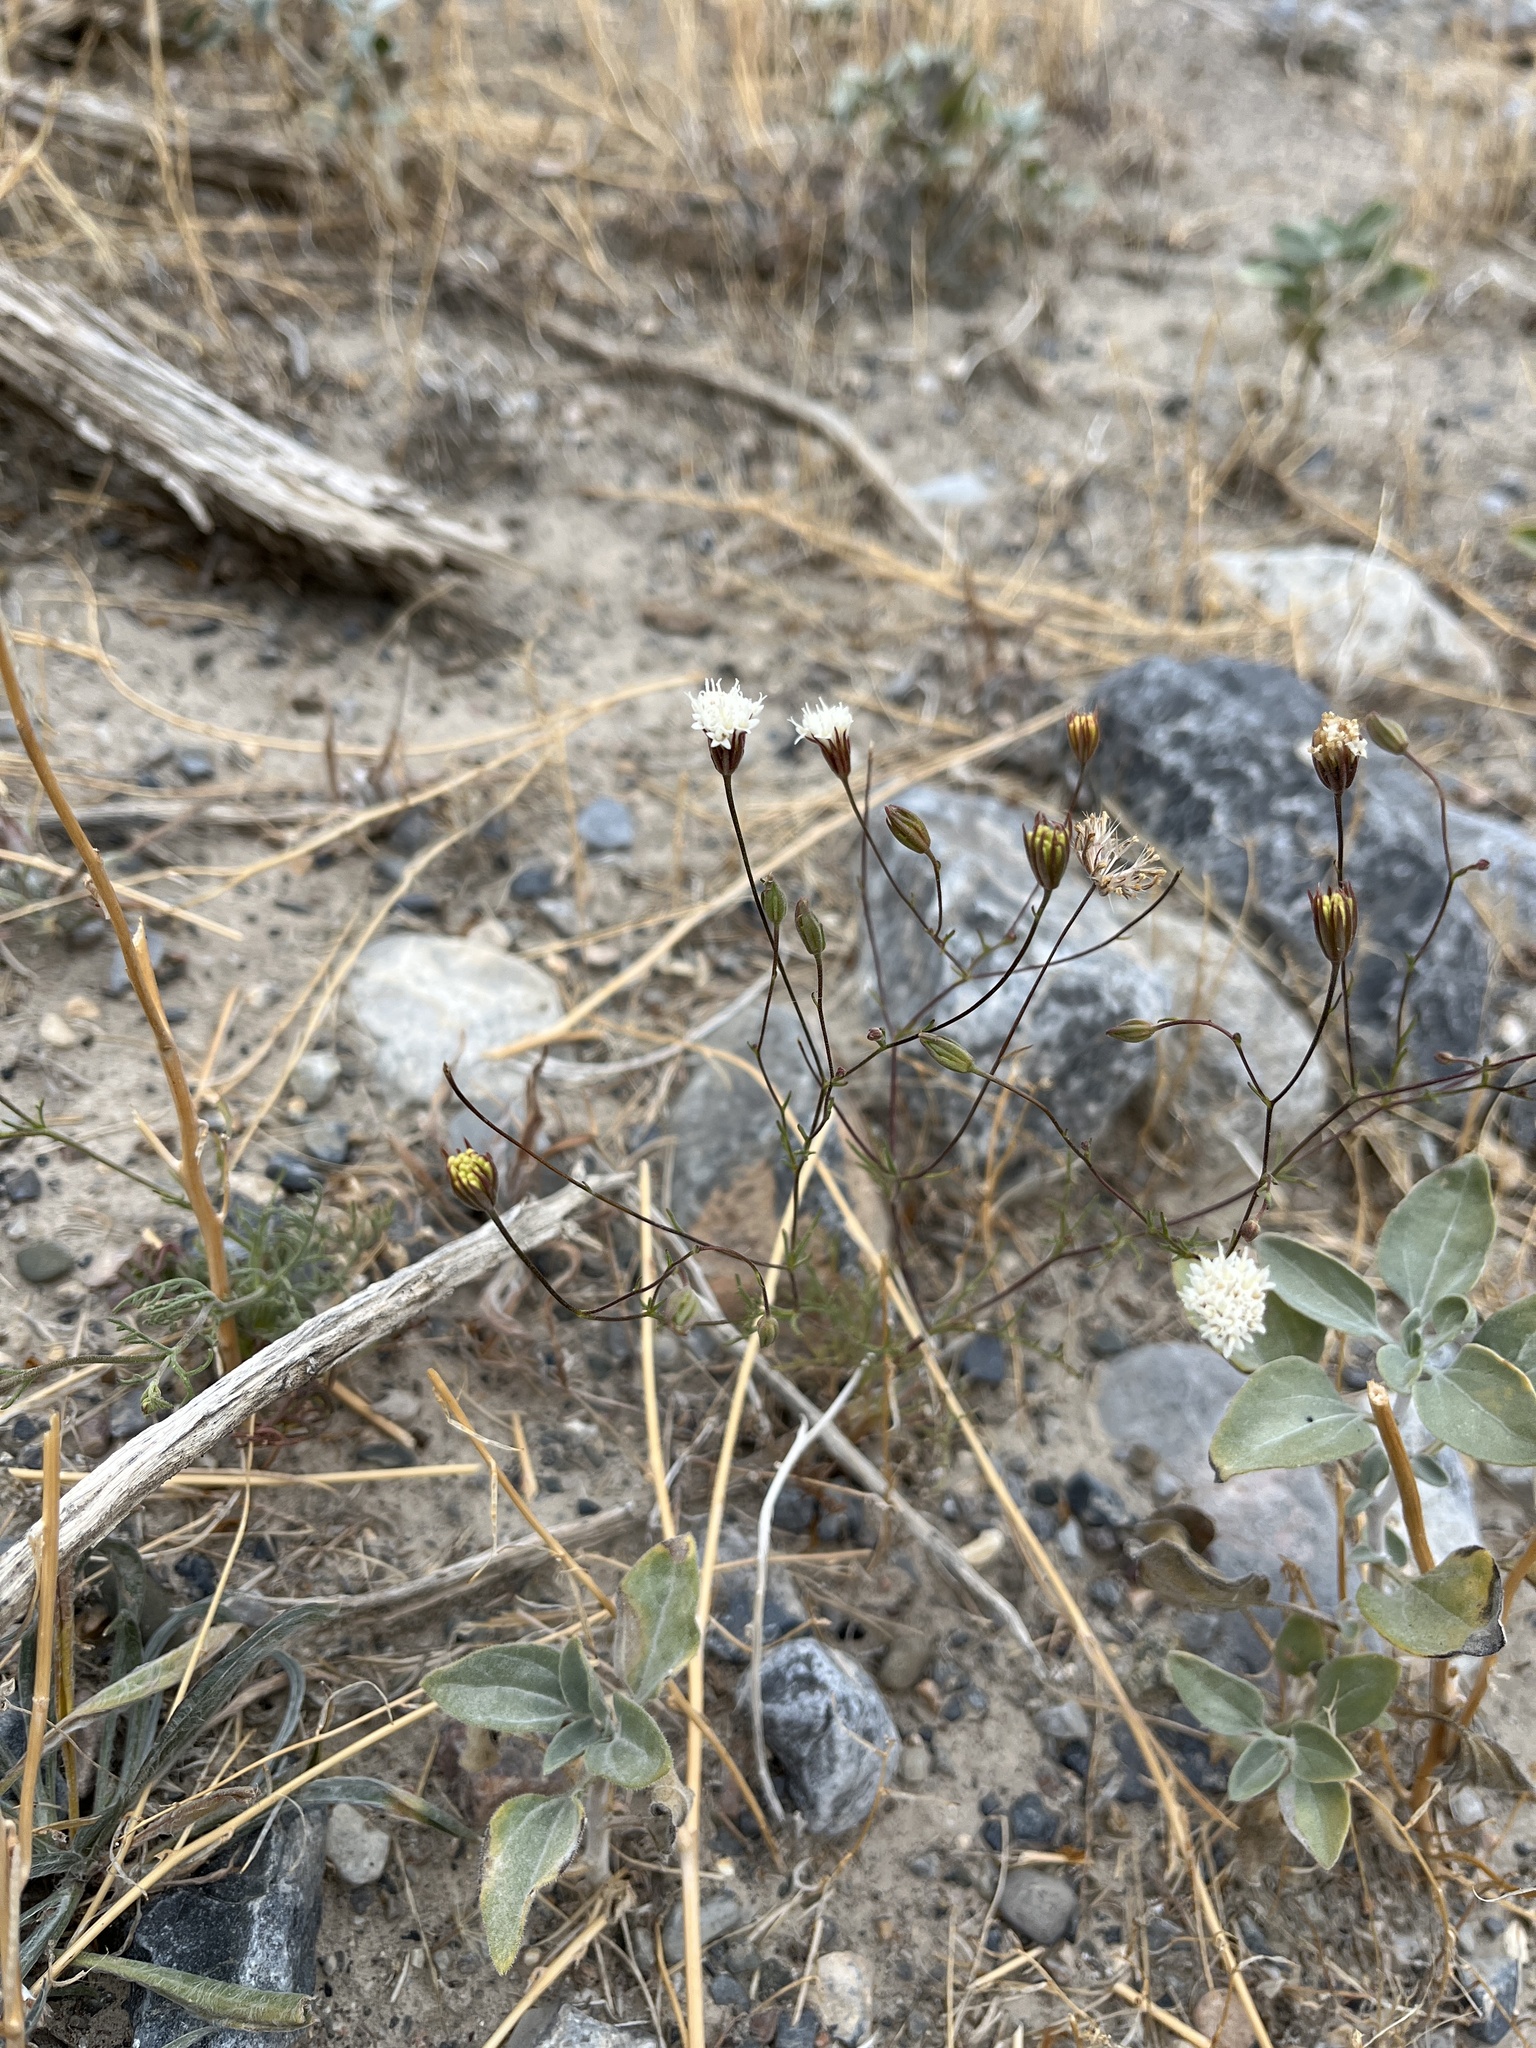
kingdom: Plantae
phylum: Tracheophyta
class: Magnoliopsida
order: Asterales
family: Asteraceae
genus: Chaenactis
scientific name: Chaenactis carphoclinia
